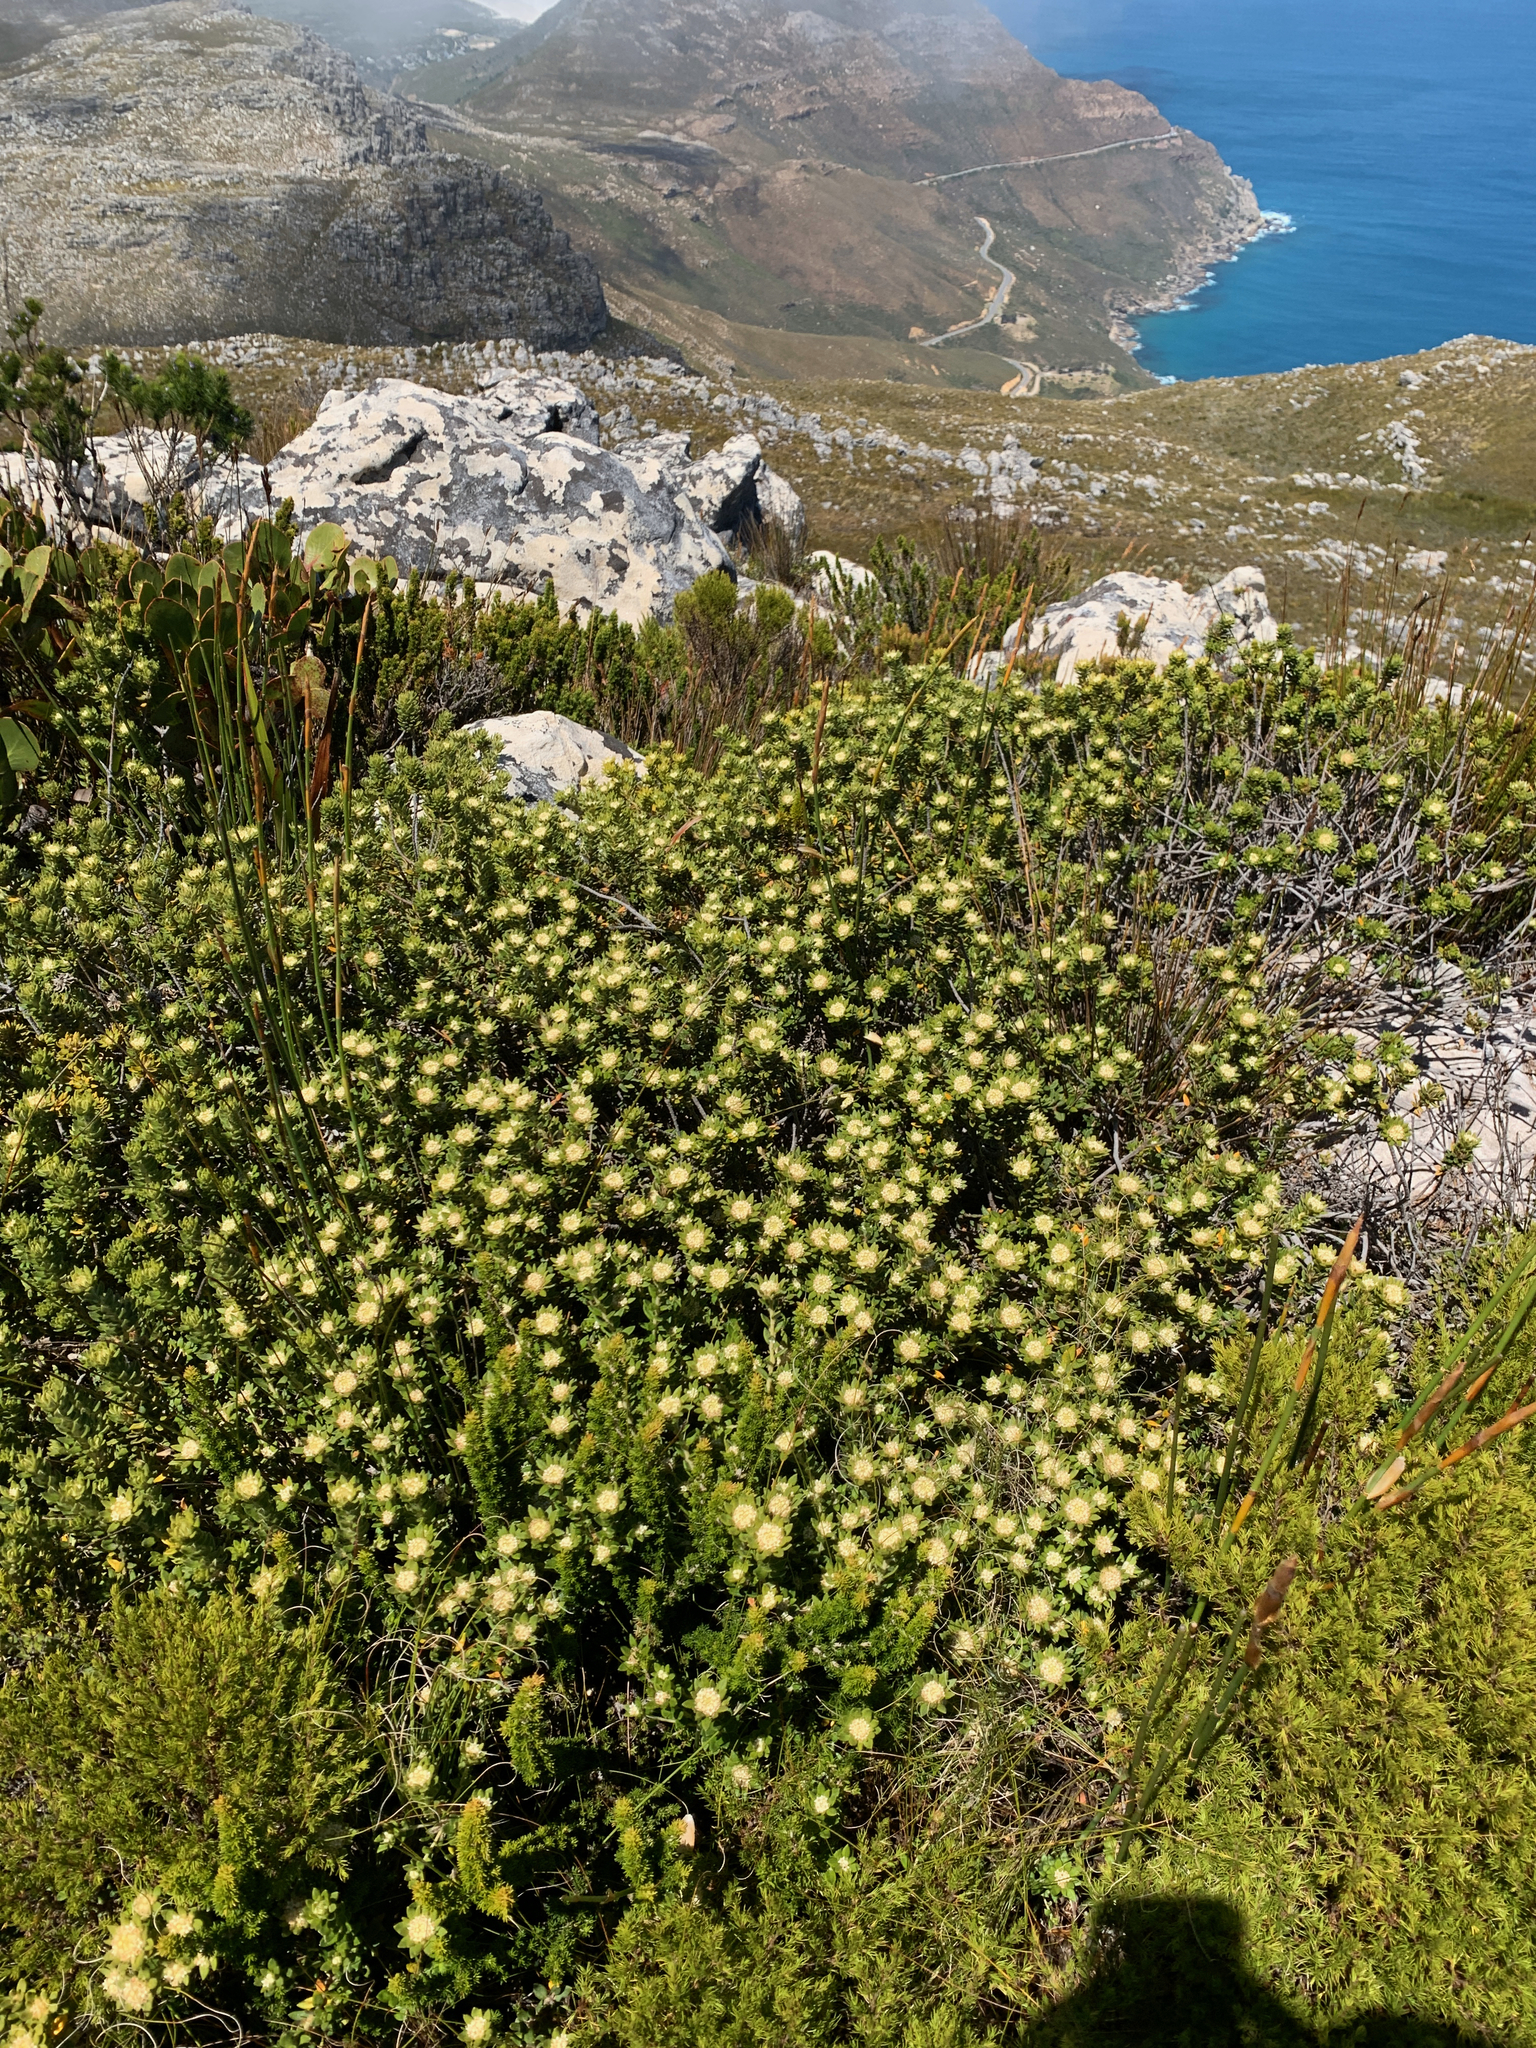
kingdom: Plantae
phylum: Tracheophyta
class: Magnoliopsida
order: Rosales
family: Rhamnaceae
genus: Phylica
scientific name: Phylica dioica
